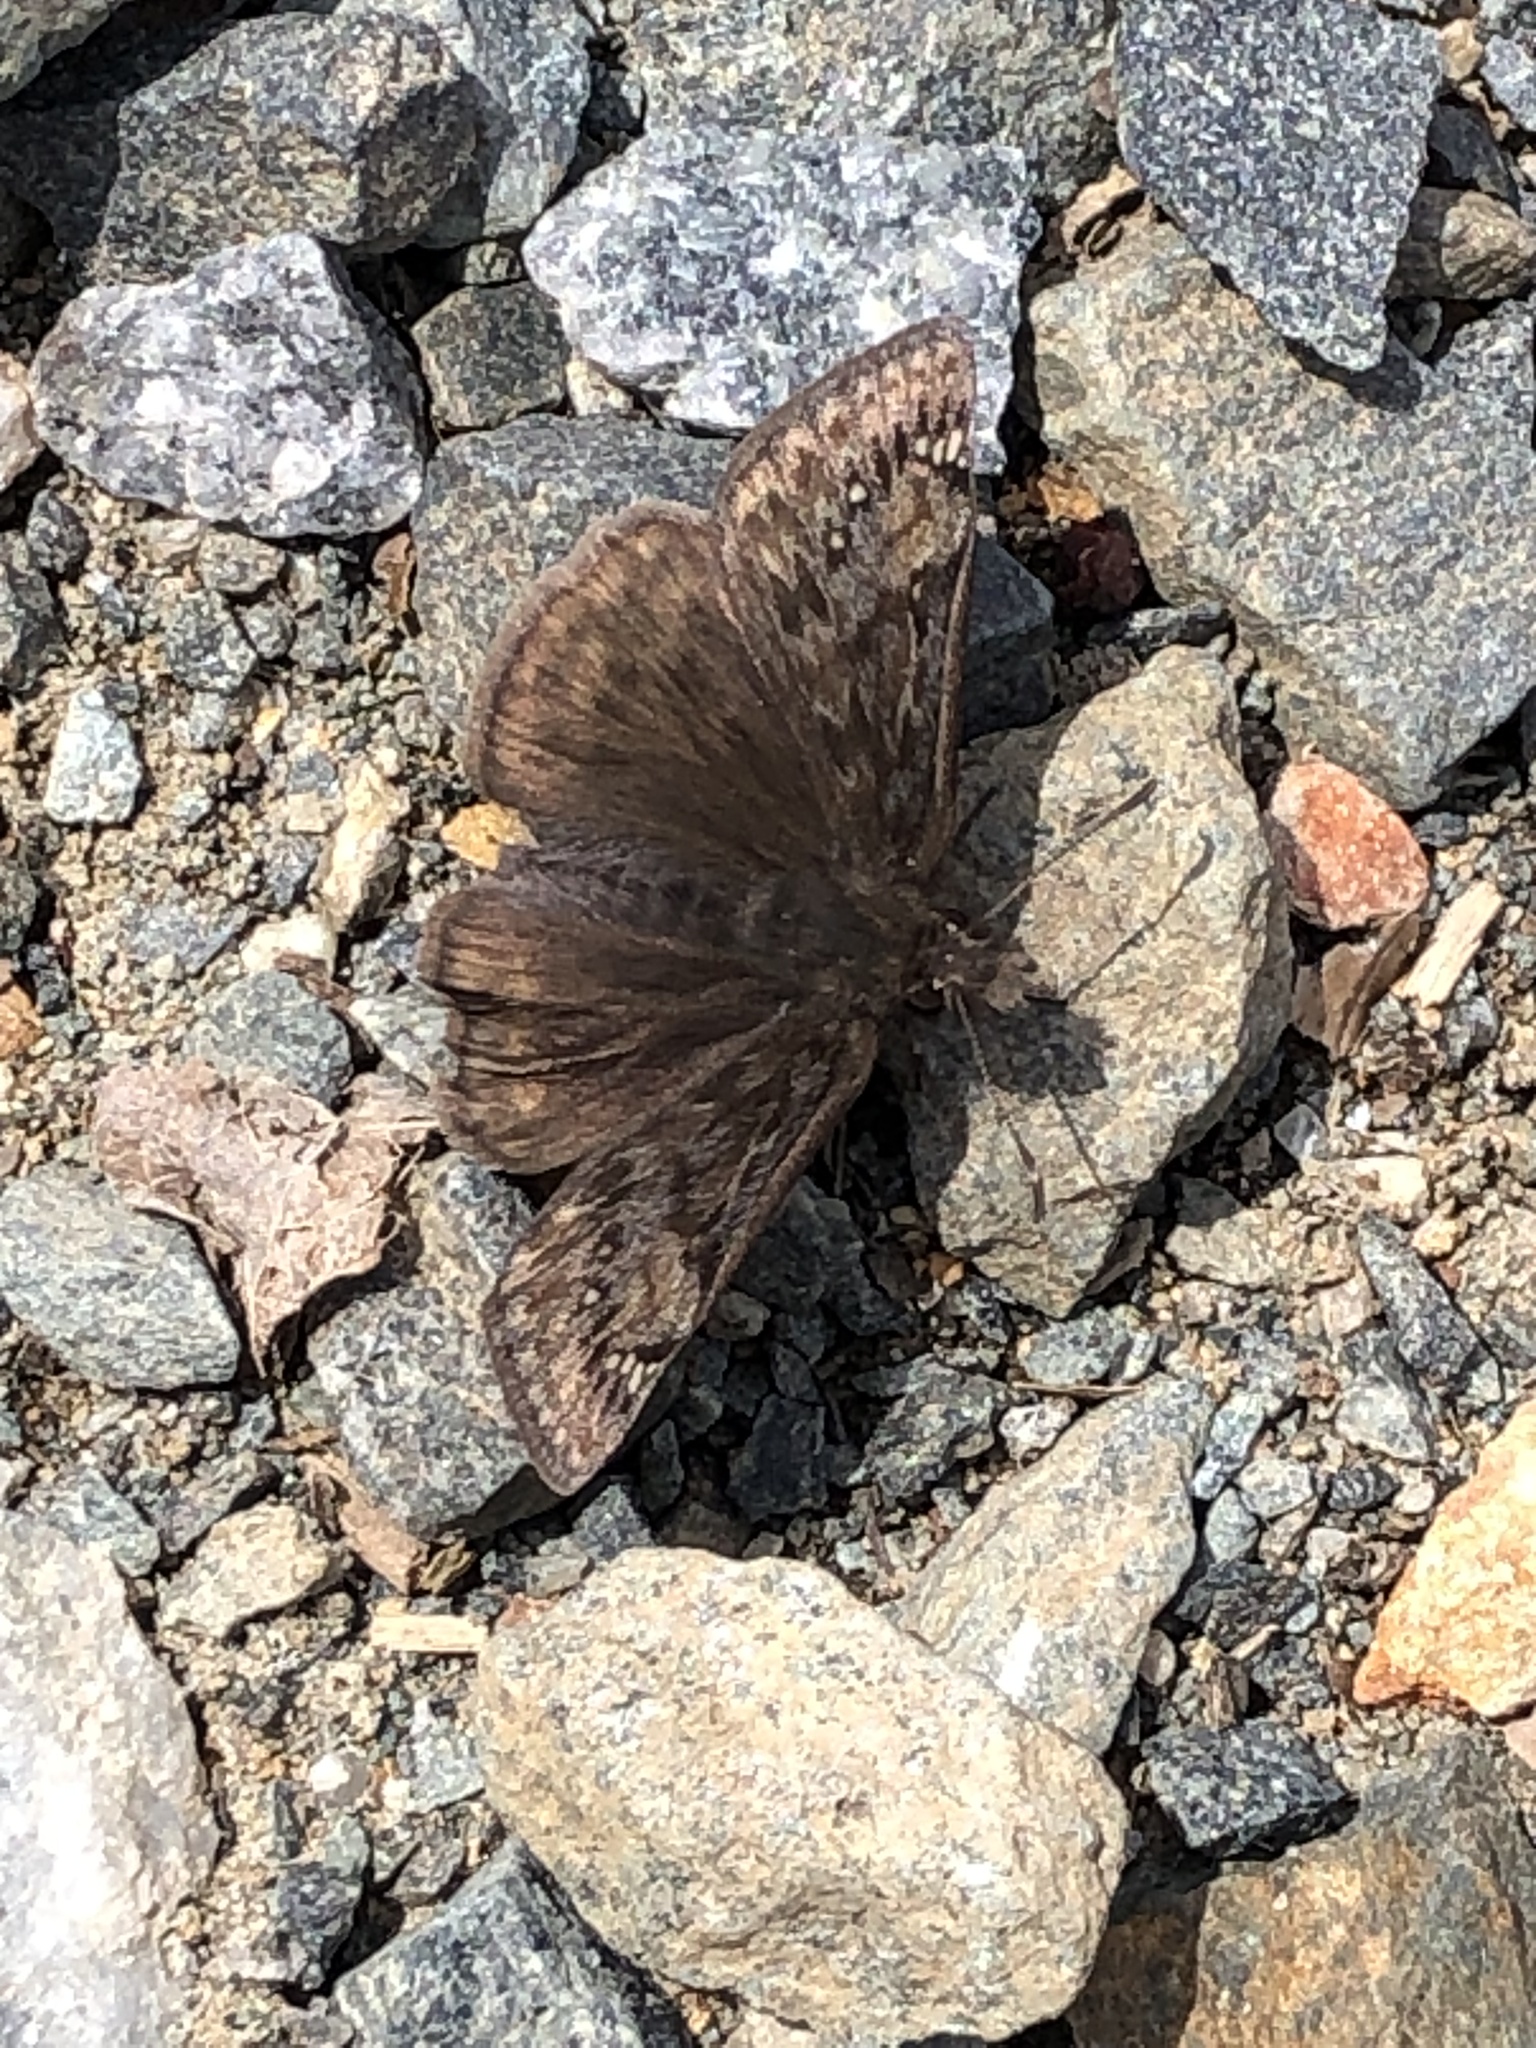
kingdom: Animalia
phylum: Arthropoda
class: Insecta
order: Lepidoptera
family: Hesperiidae
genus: Erynnis
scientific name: Erynnis juvenalis
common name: Juvenal's duskywing
